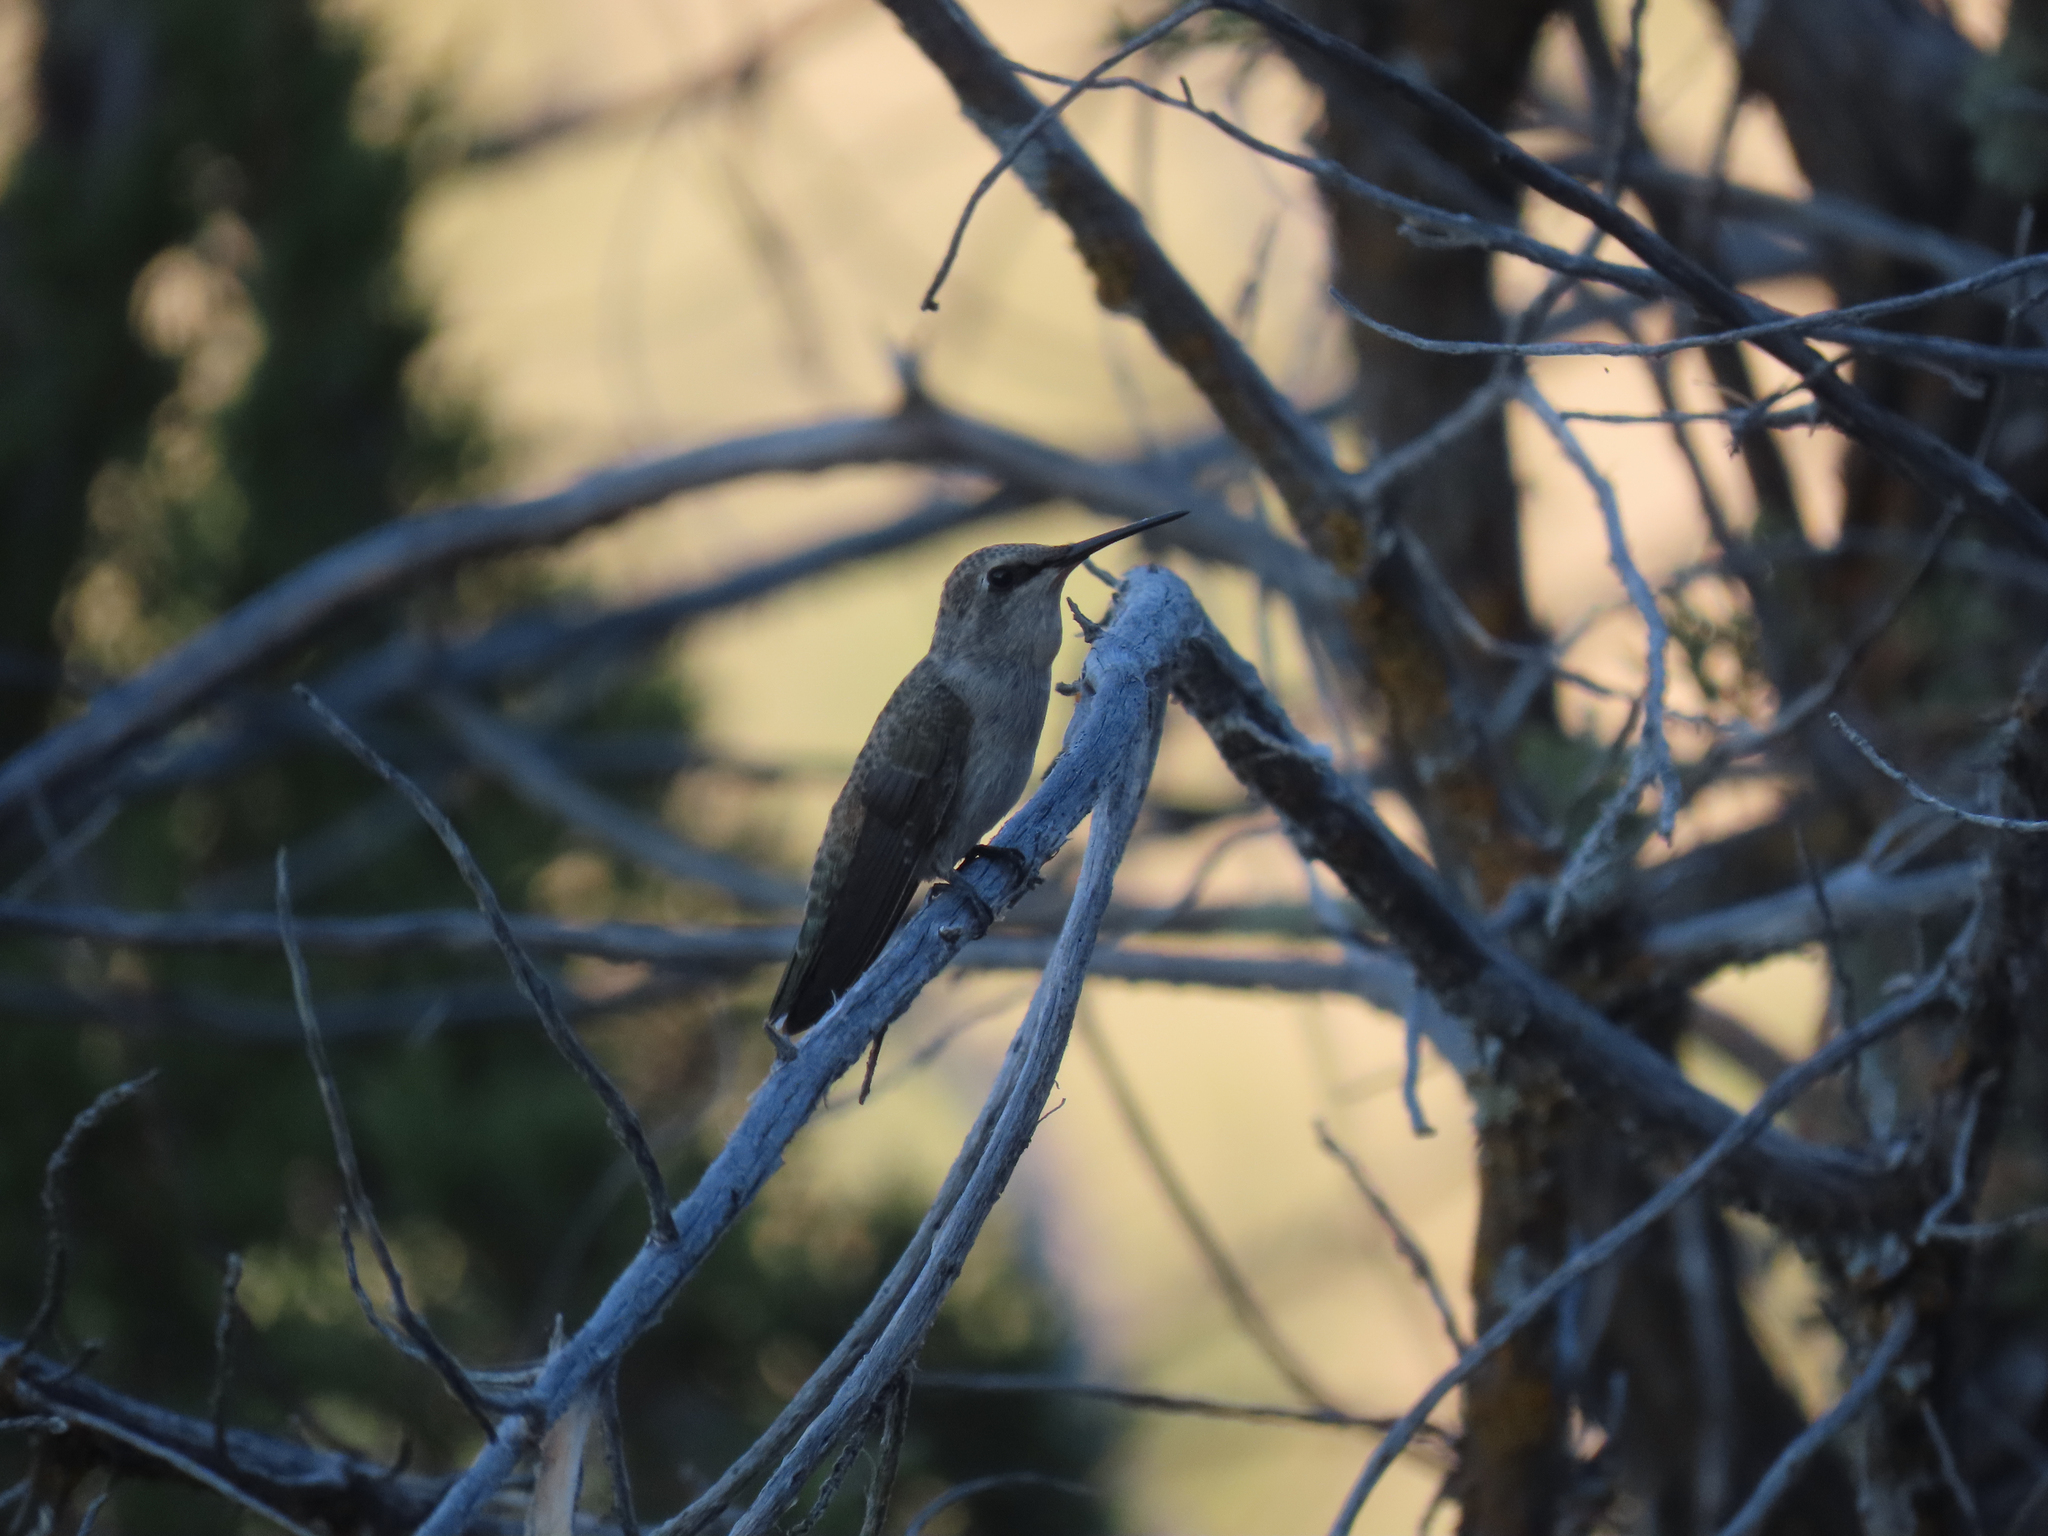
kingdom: Animalia
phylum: Chordata
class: Aves
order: Apodiformes
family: Trochilidae
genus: Calypte
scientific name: Calypte costae
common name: Costa's hummingbird
